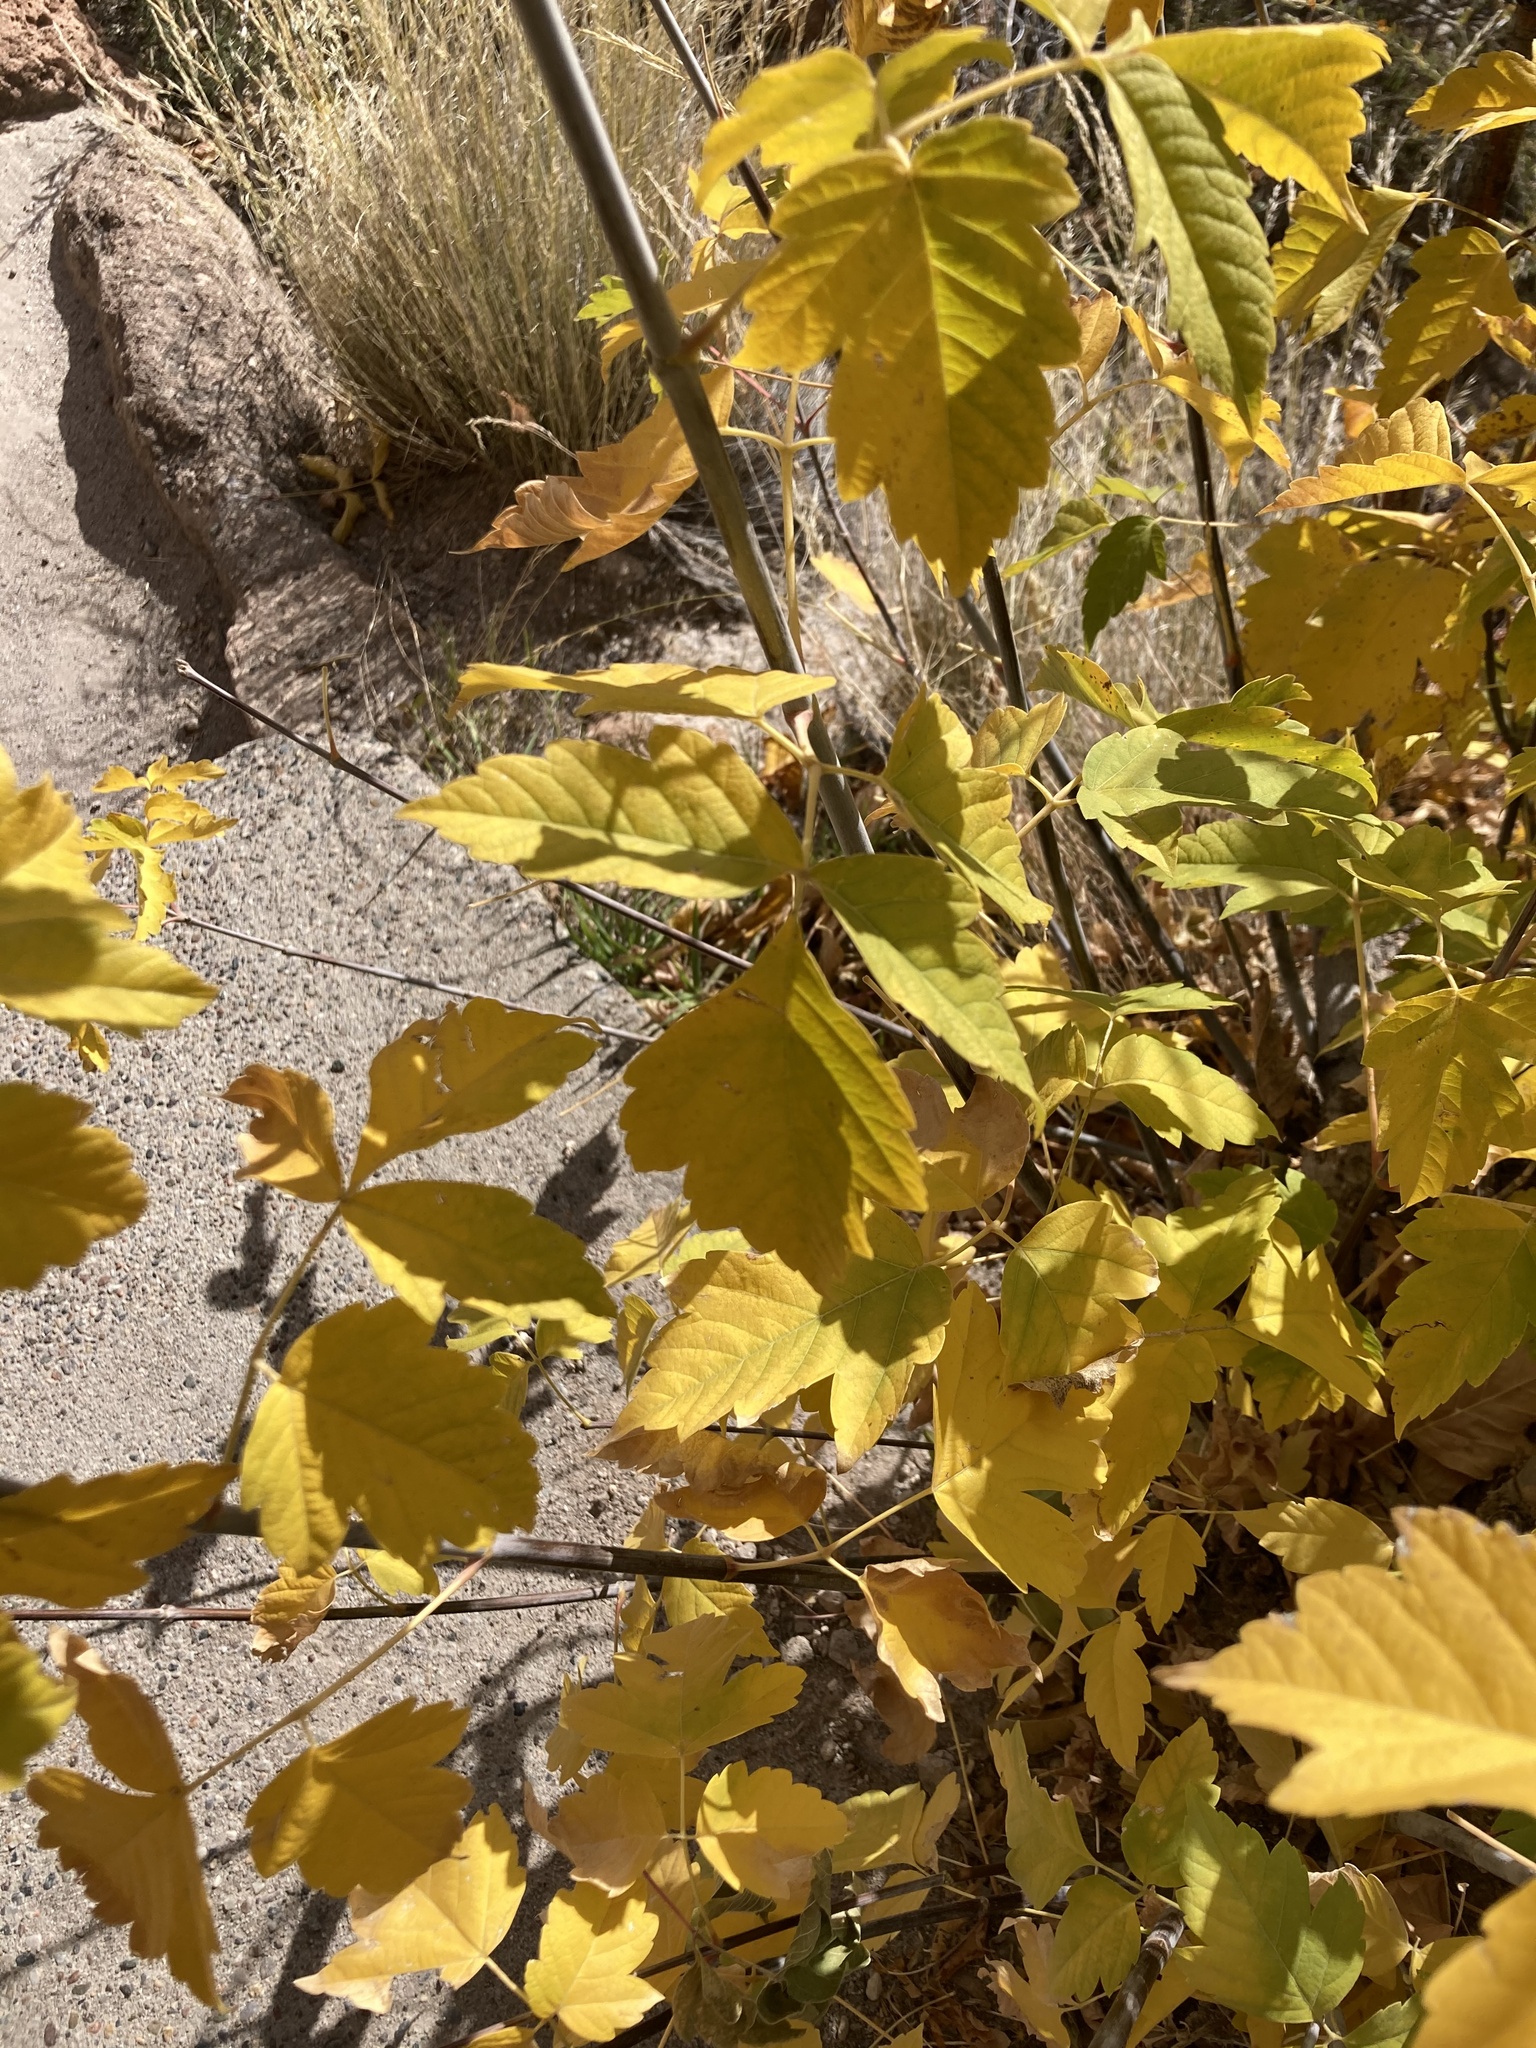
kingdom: Plantae
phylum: Tracheophyta
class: Magnoliopsida
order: Sapindales
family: Sapindaceae
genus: Acer
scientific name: Acer negundo
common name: Ashleaf maple
